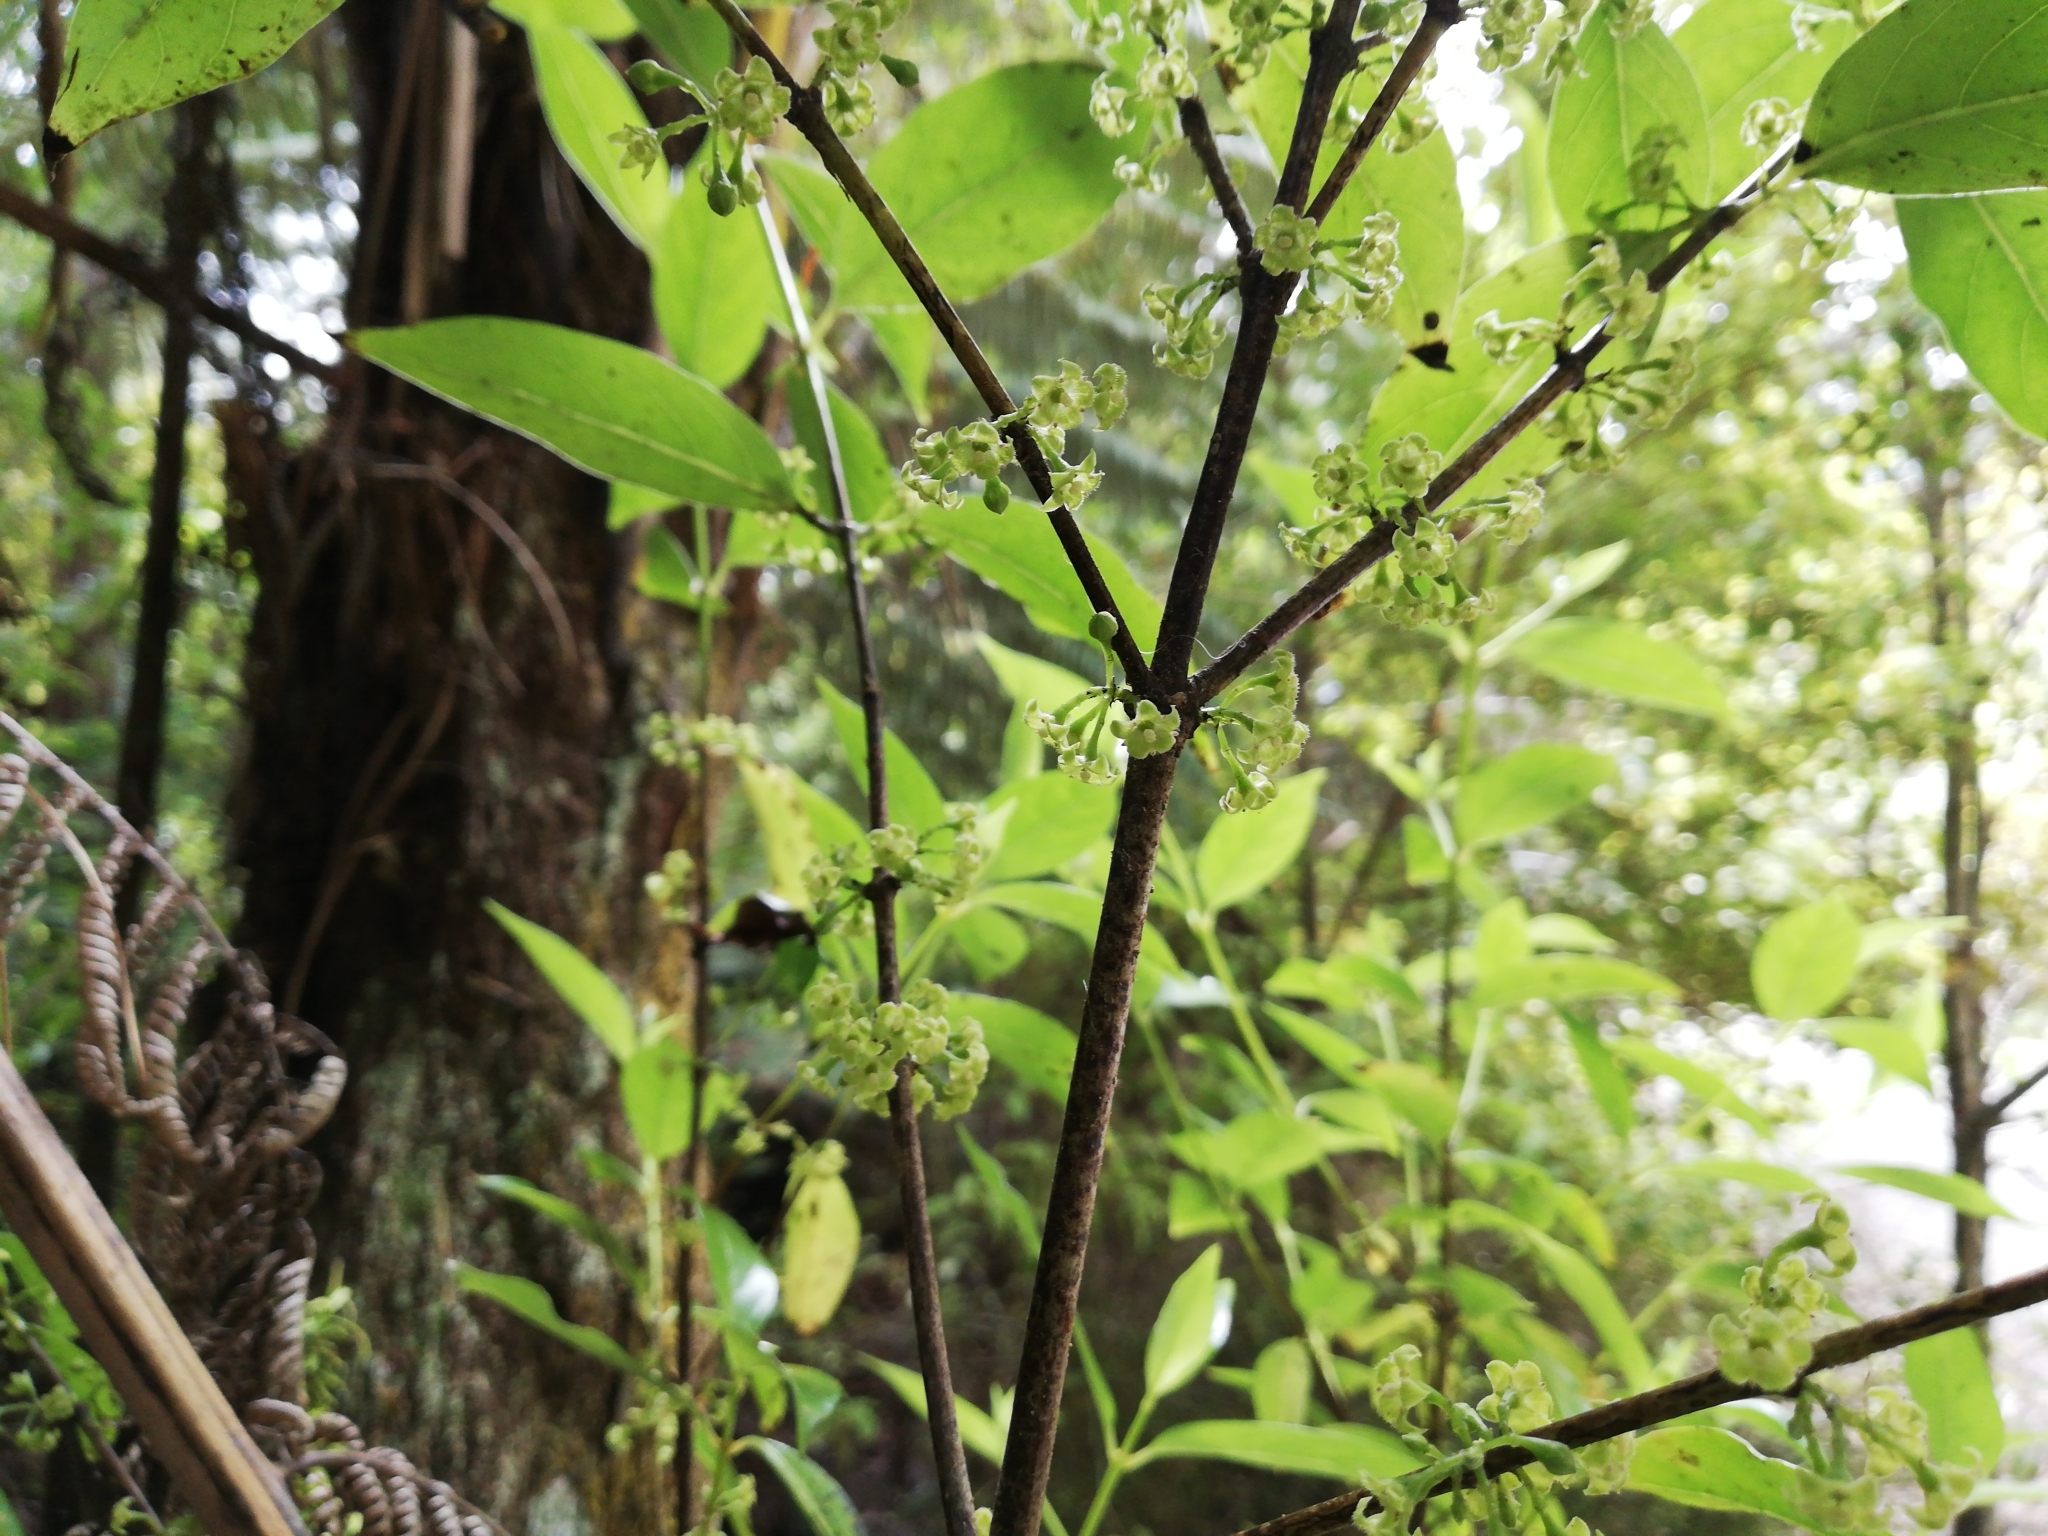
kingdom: Plantae
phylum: Tracheophyta
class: Magnoliopsida
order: Gentianales
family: Loganiaceae
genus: Geniostoma
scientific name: Geniostoma ligustrifolium
